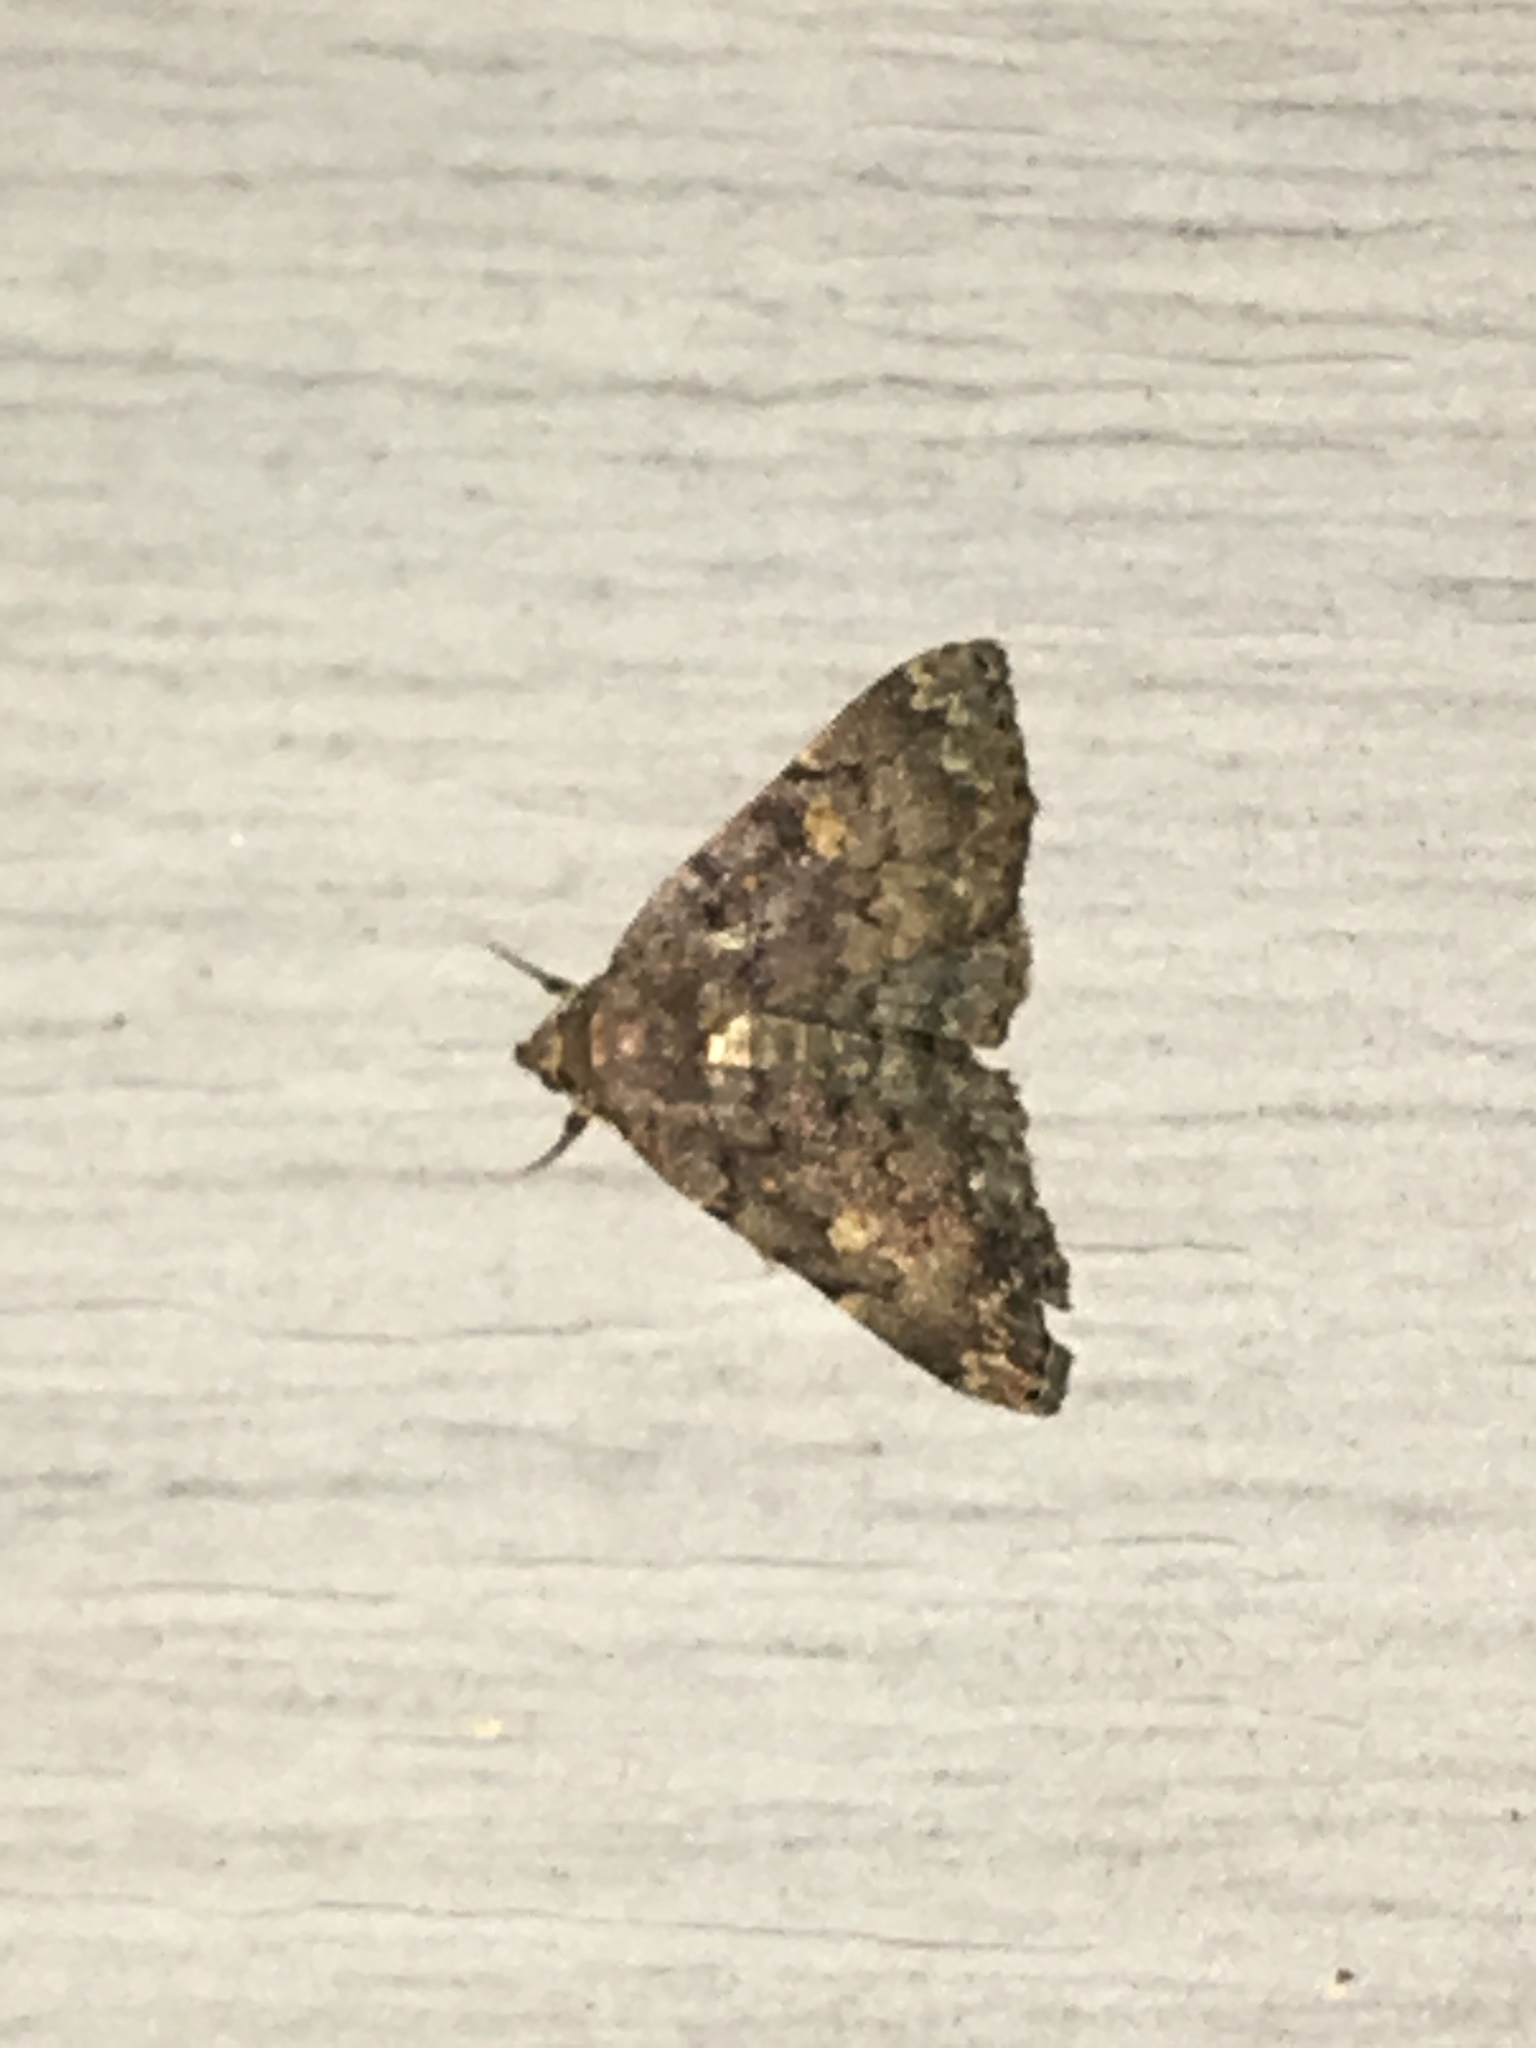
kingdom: Animalia
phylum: Arthropoda
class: Insecta
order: Lepidoptera
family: Erebidae
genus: Idia
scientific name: Idia aemula
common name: Common idia moth
